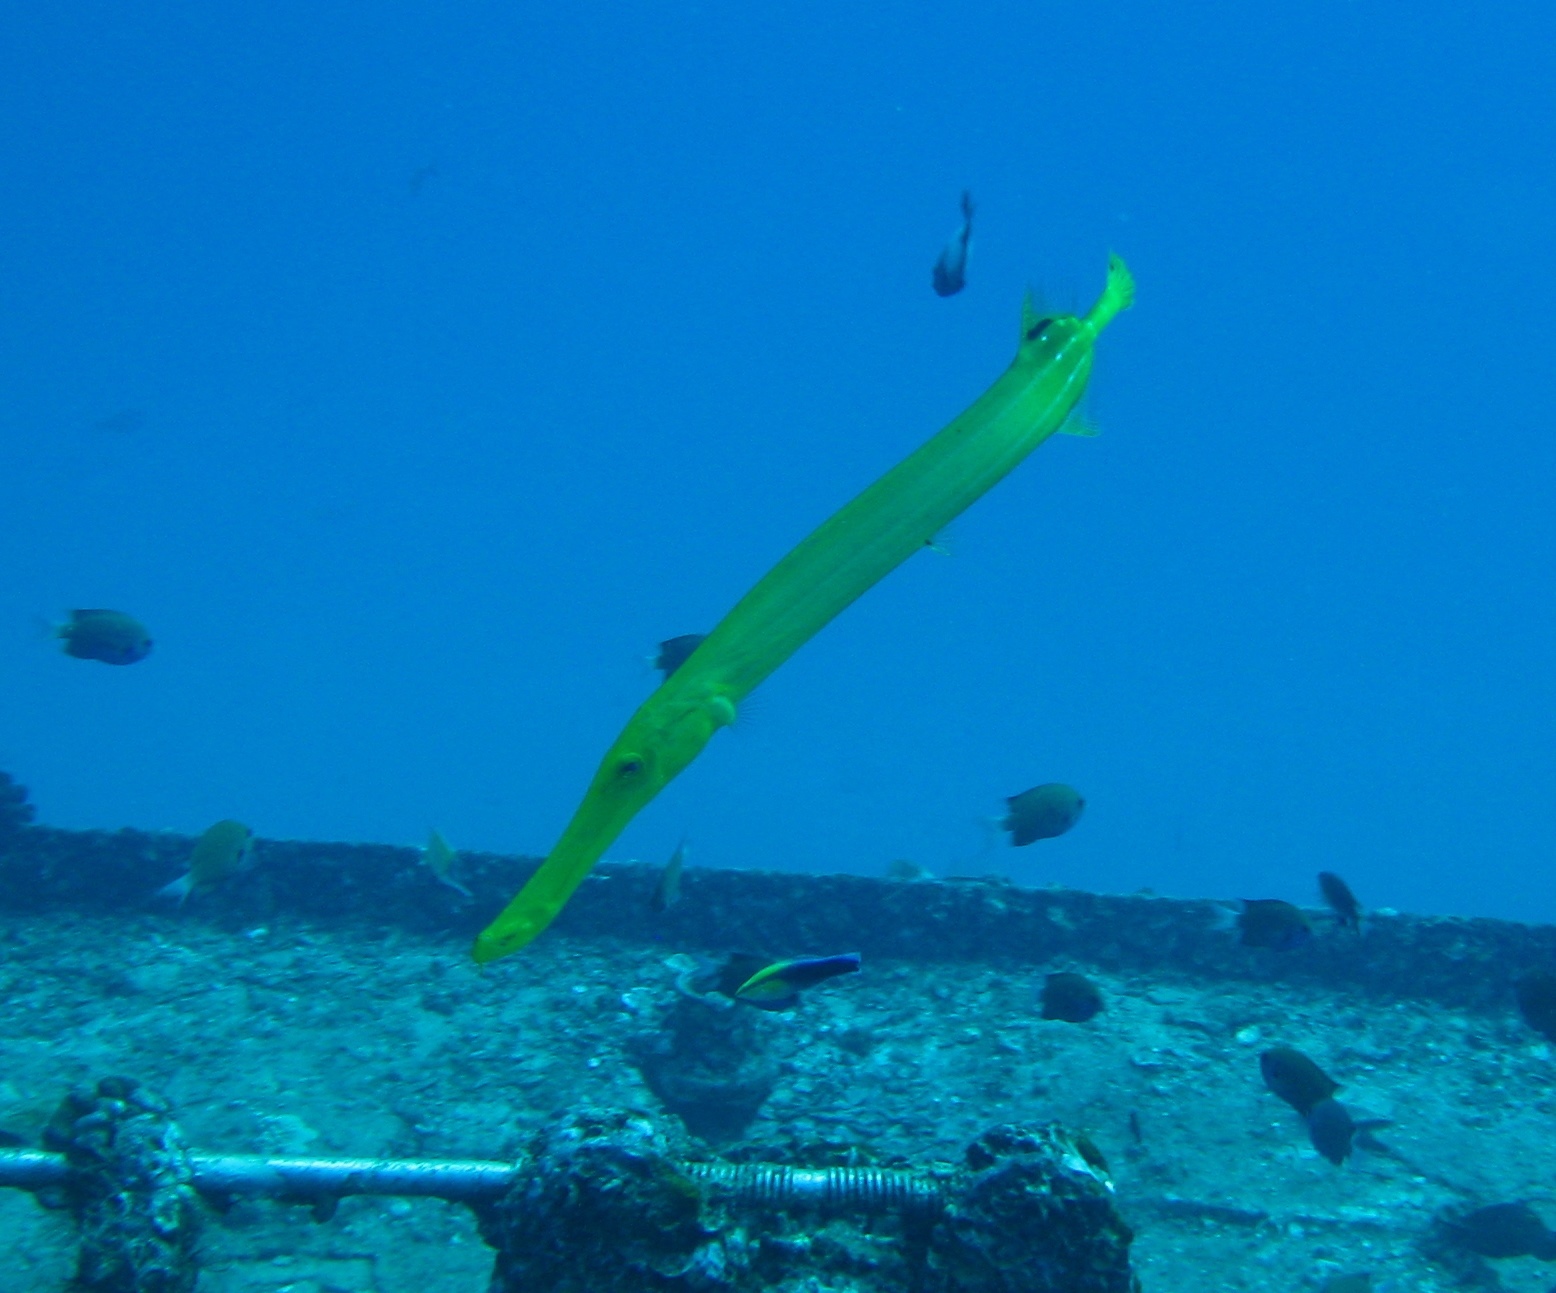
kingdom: Animalia
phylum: Chordata
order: Syngnathiformes
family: Aulostomidae
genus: Aulostomus
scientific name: Aulostomus chinensis
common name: Chinese trumpetfish
